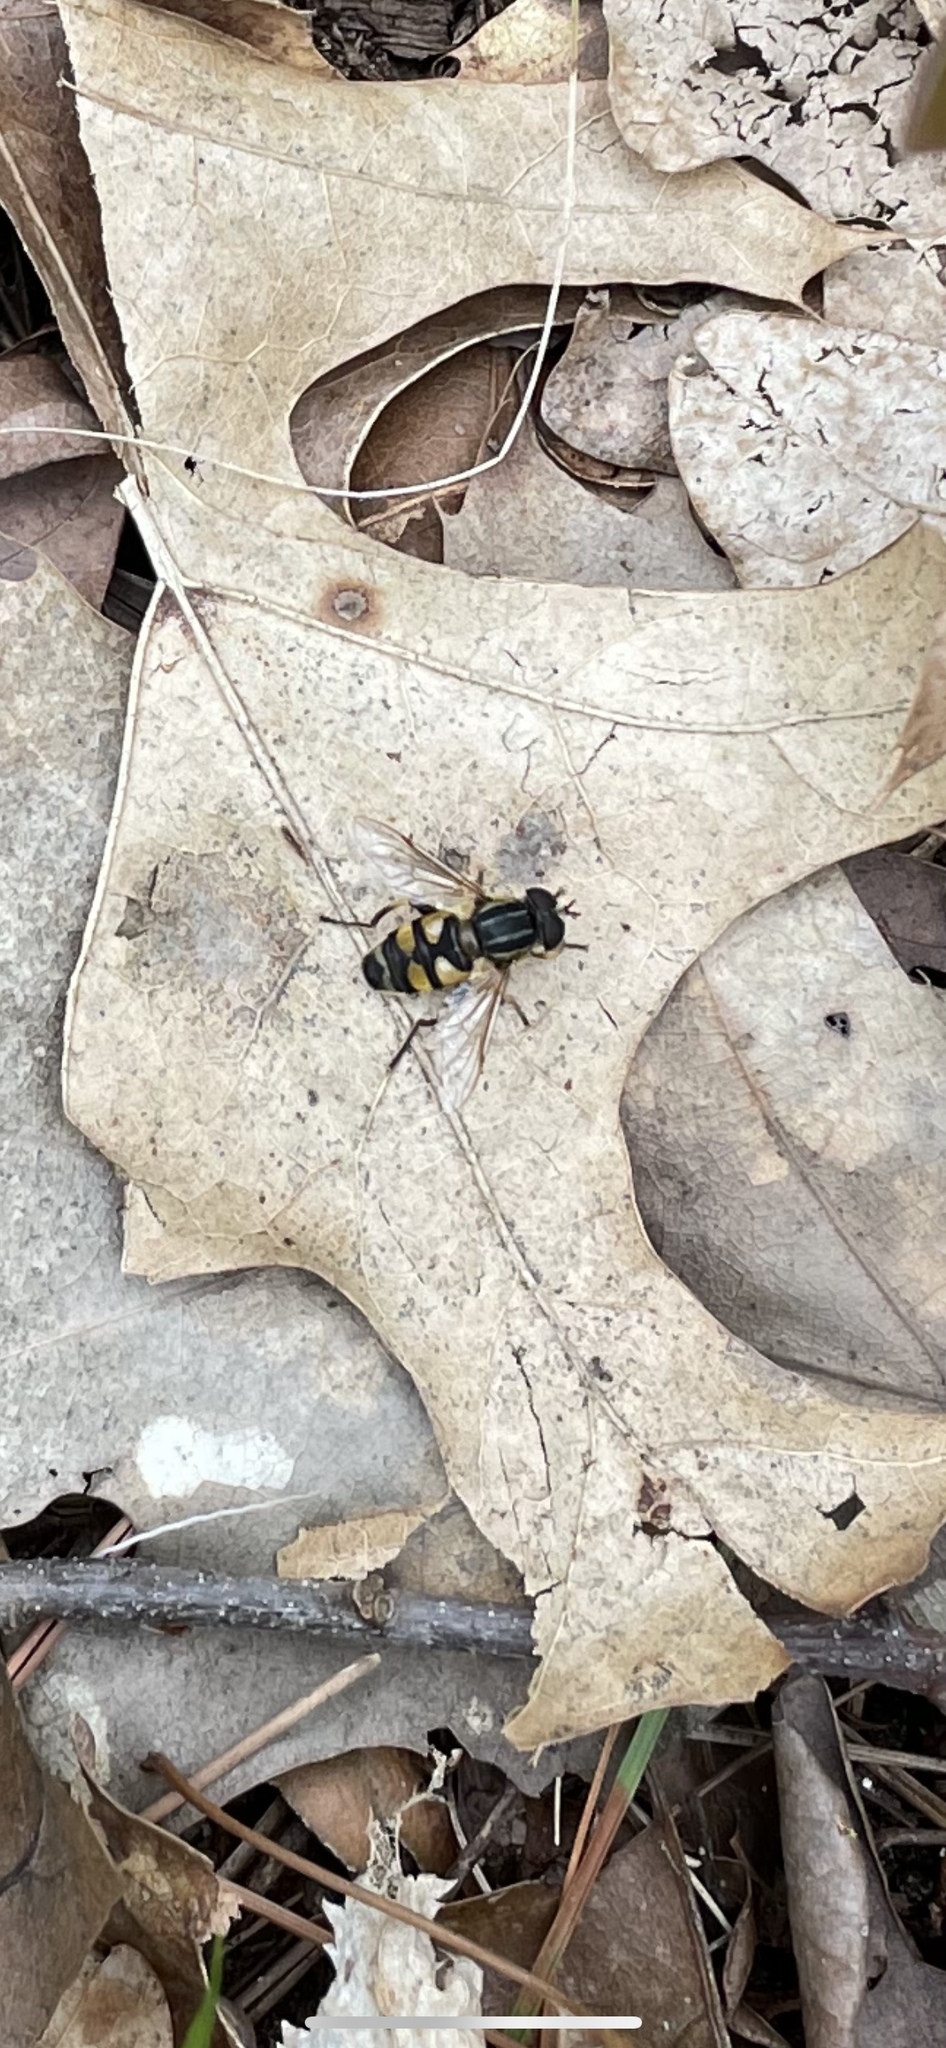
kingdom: Animalia
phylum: Arthropoda
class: Insecta
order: Diptera
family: Syrphidae
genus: Helophilus
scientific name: Helophilus fasciatus
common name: Narrow-headed marsh fly
